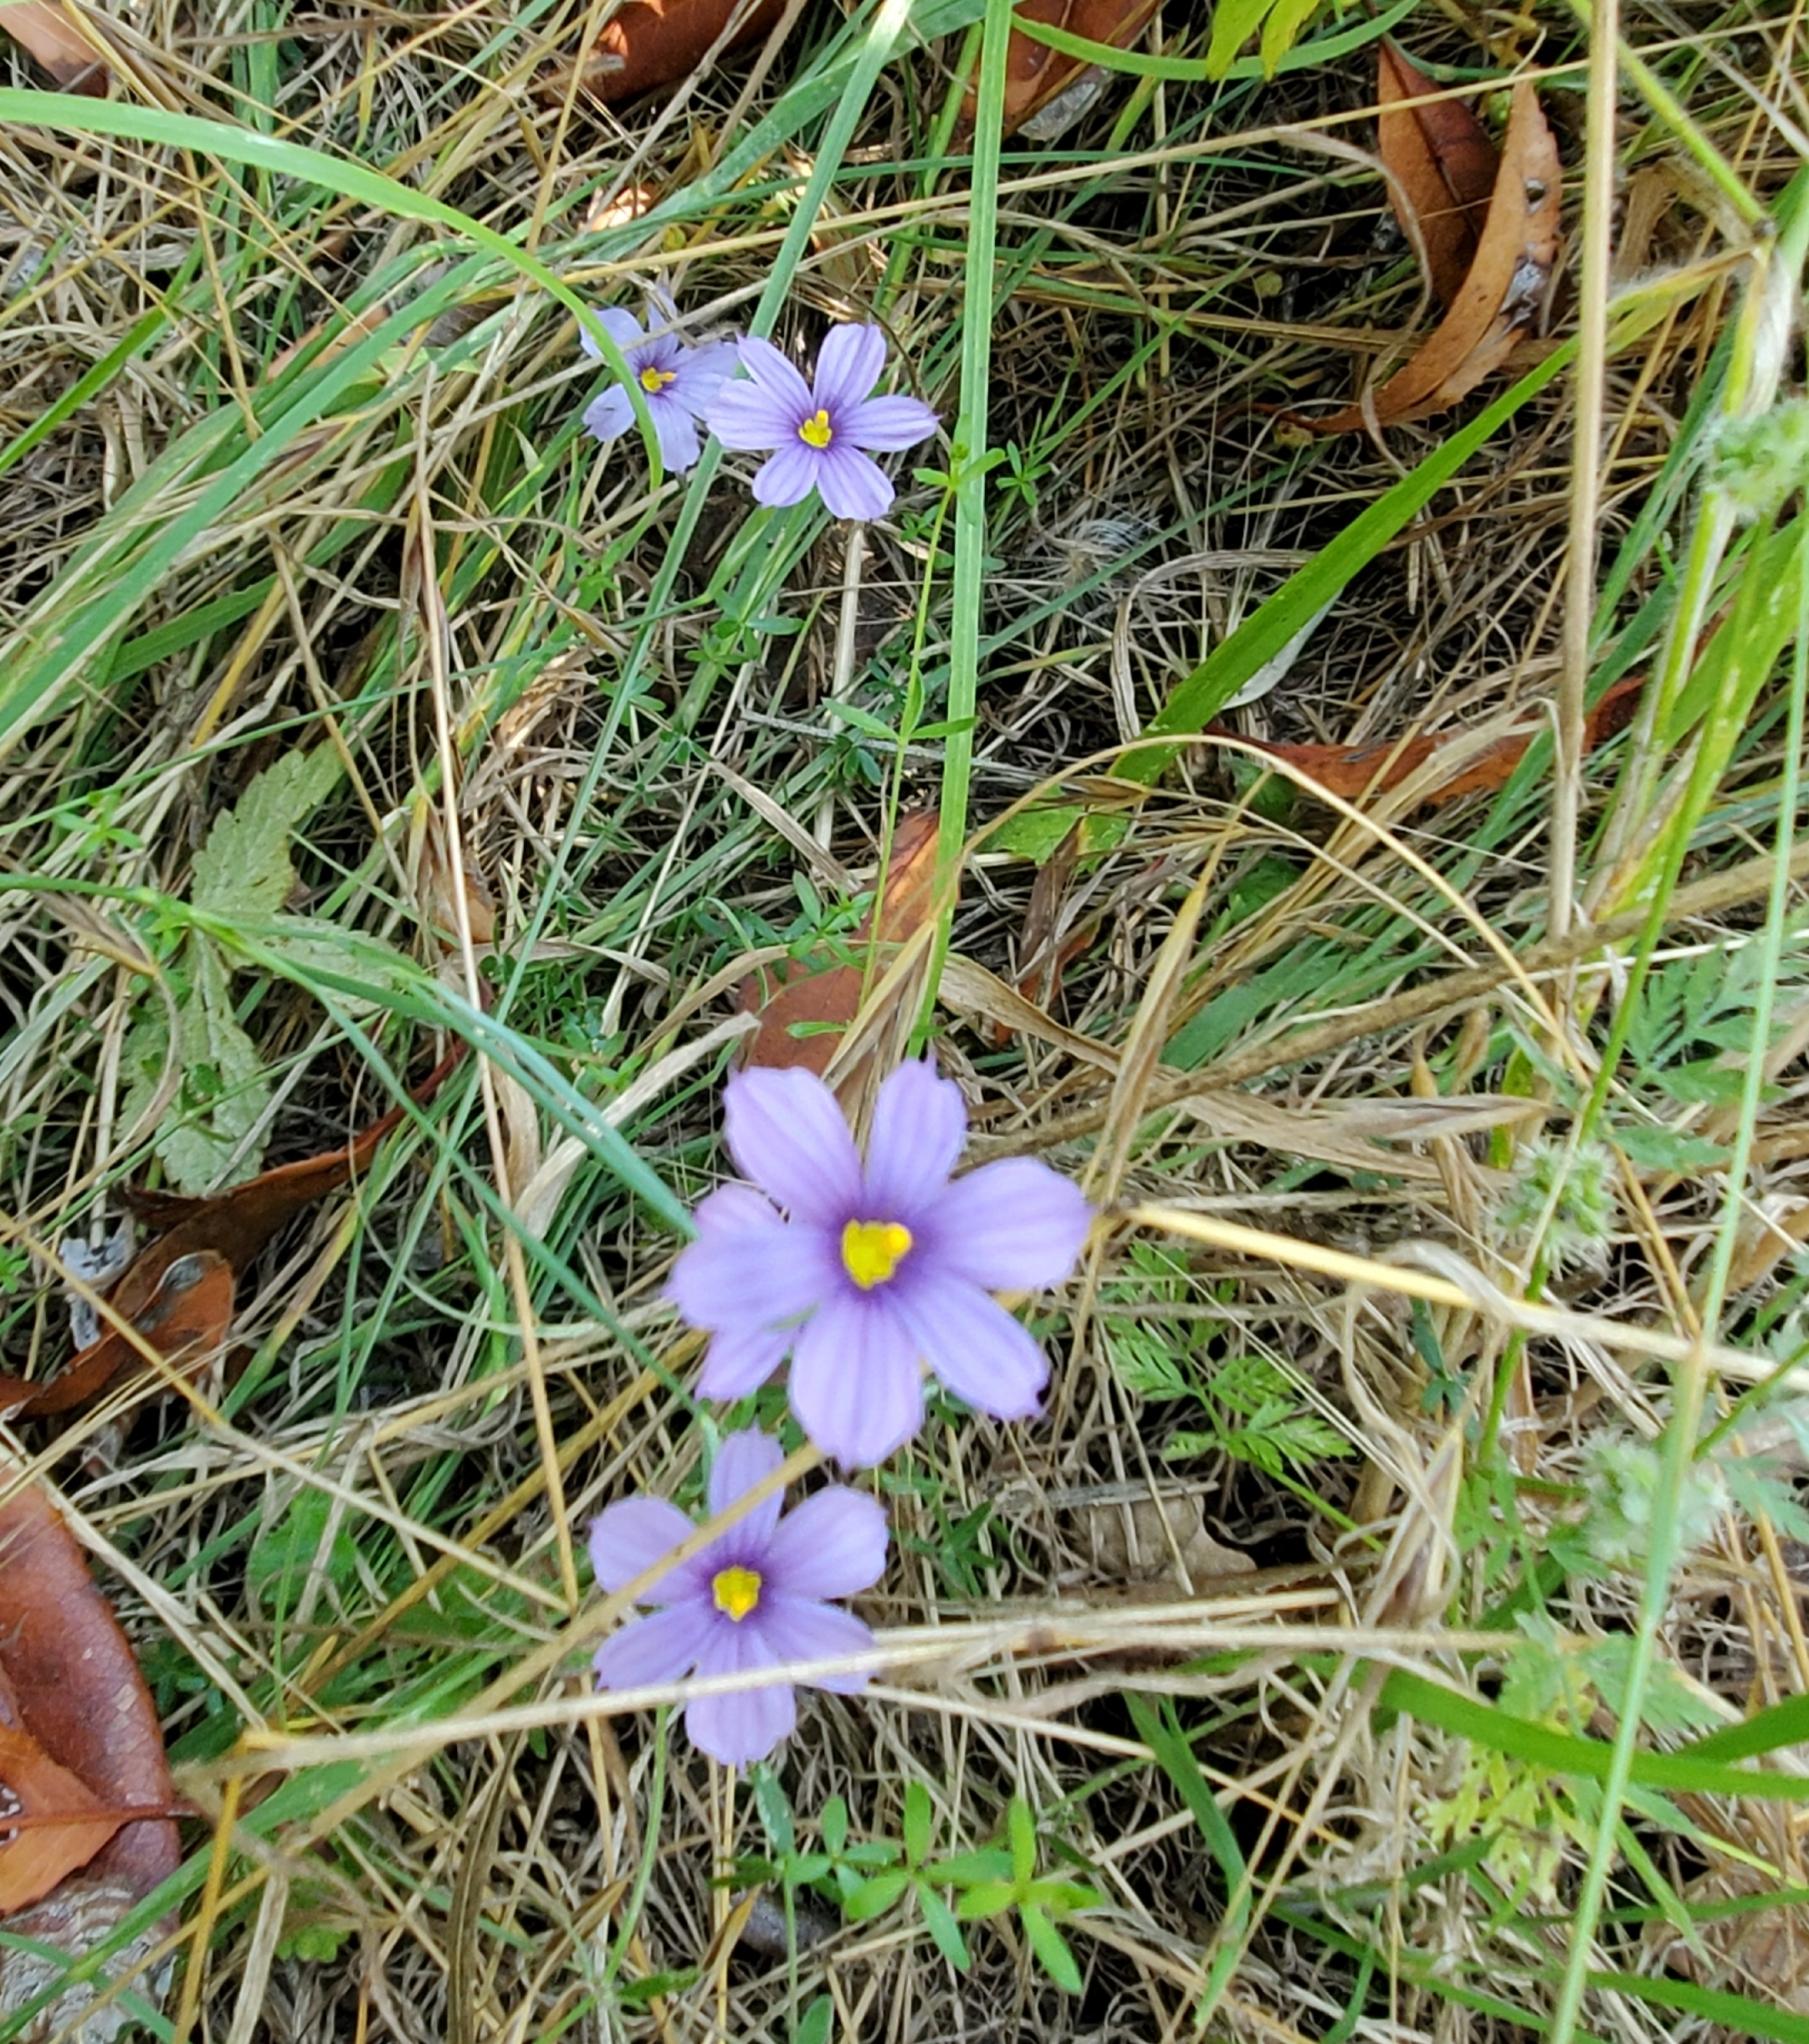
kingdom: Plantae
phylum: Tracheophyta
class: Liliopsida
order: Asparagales
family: Iridaceae
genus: Sisyrinchium
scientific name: Sisyrinchium bellum
